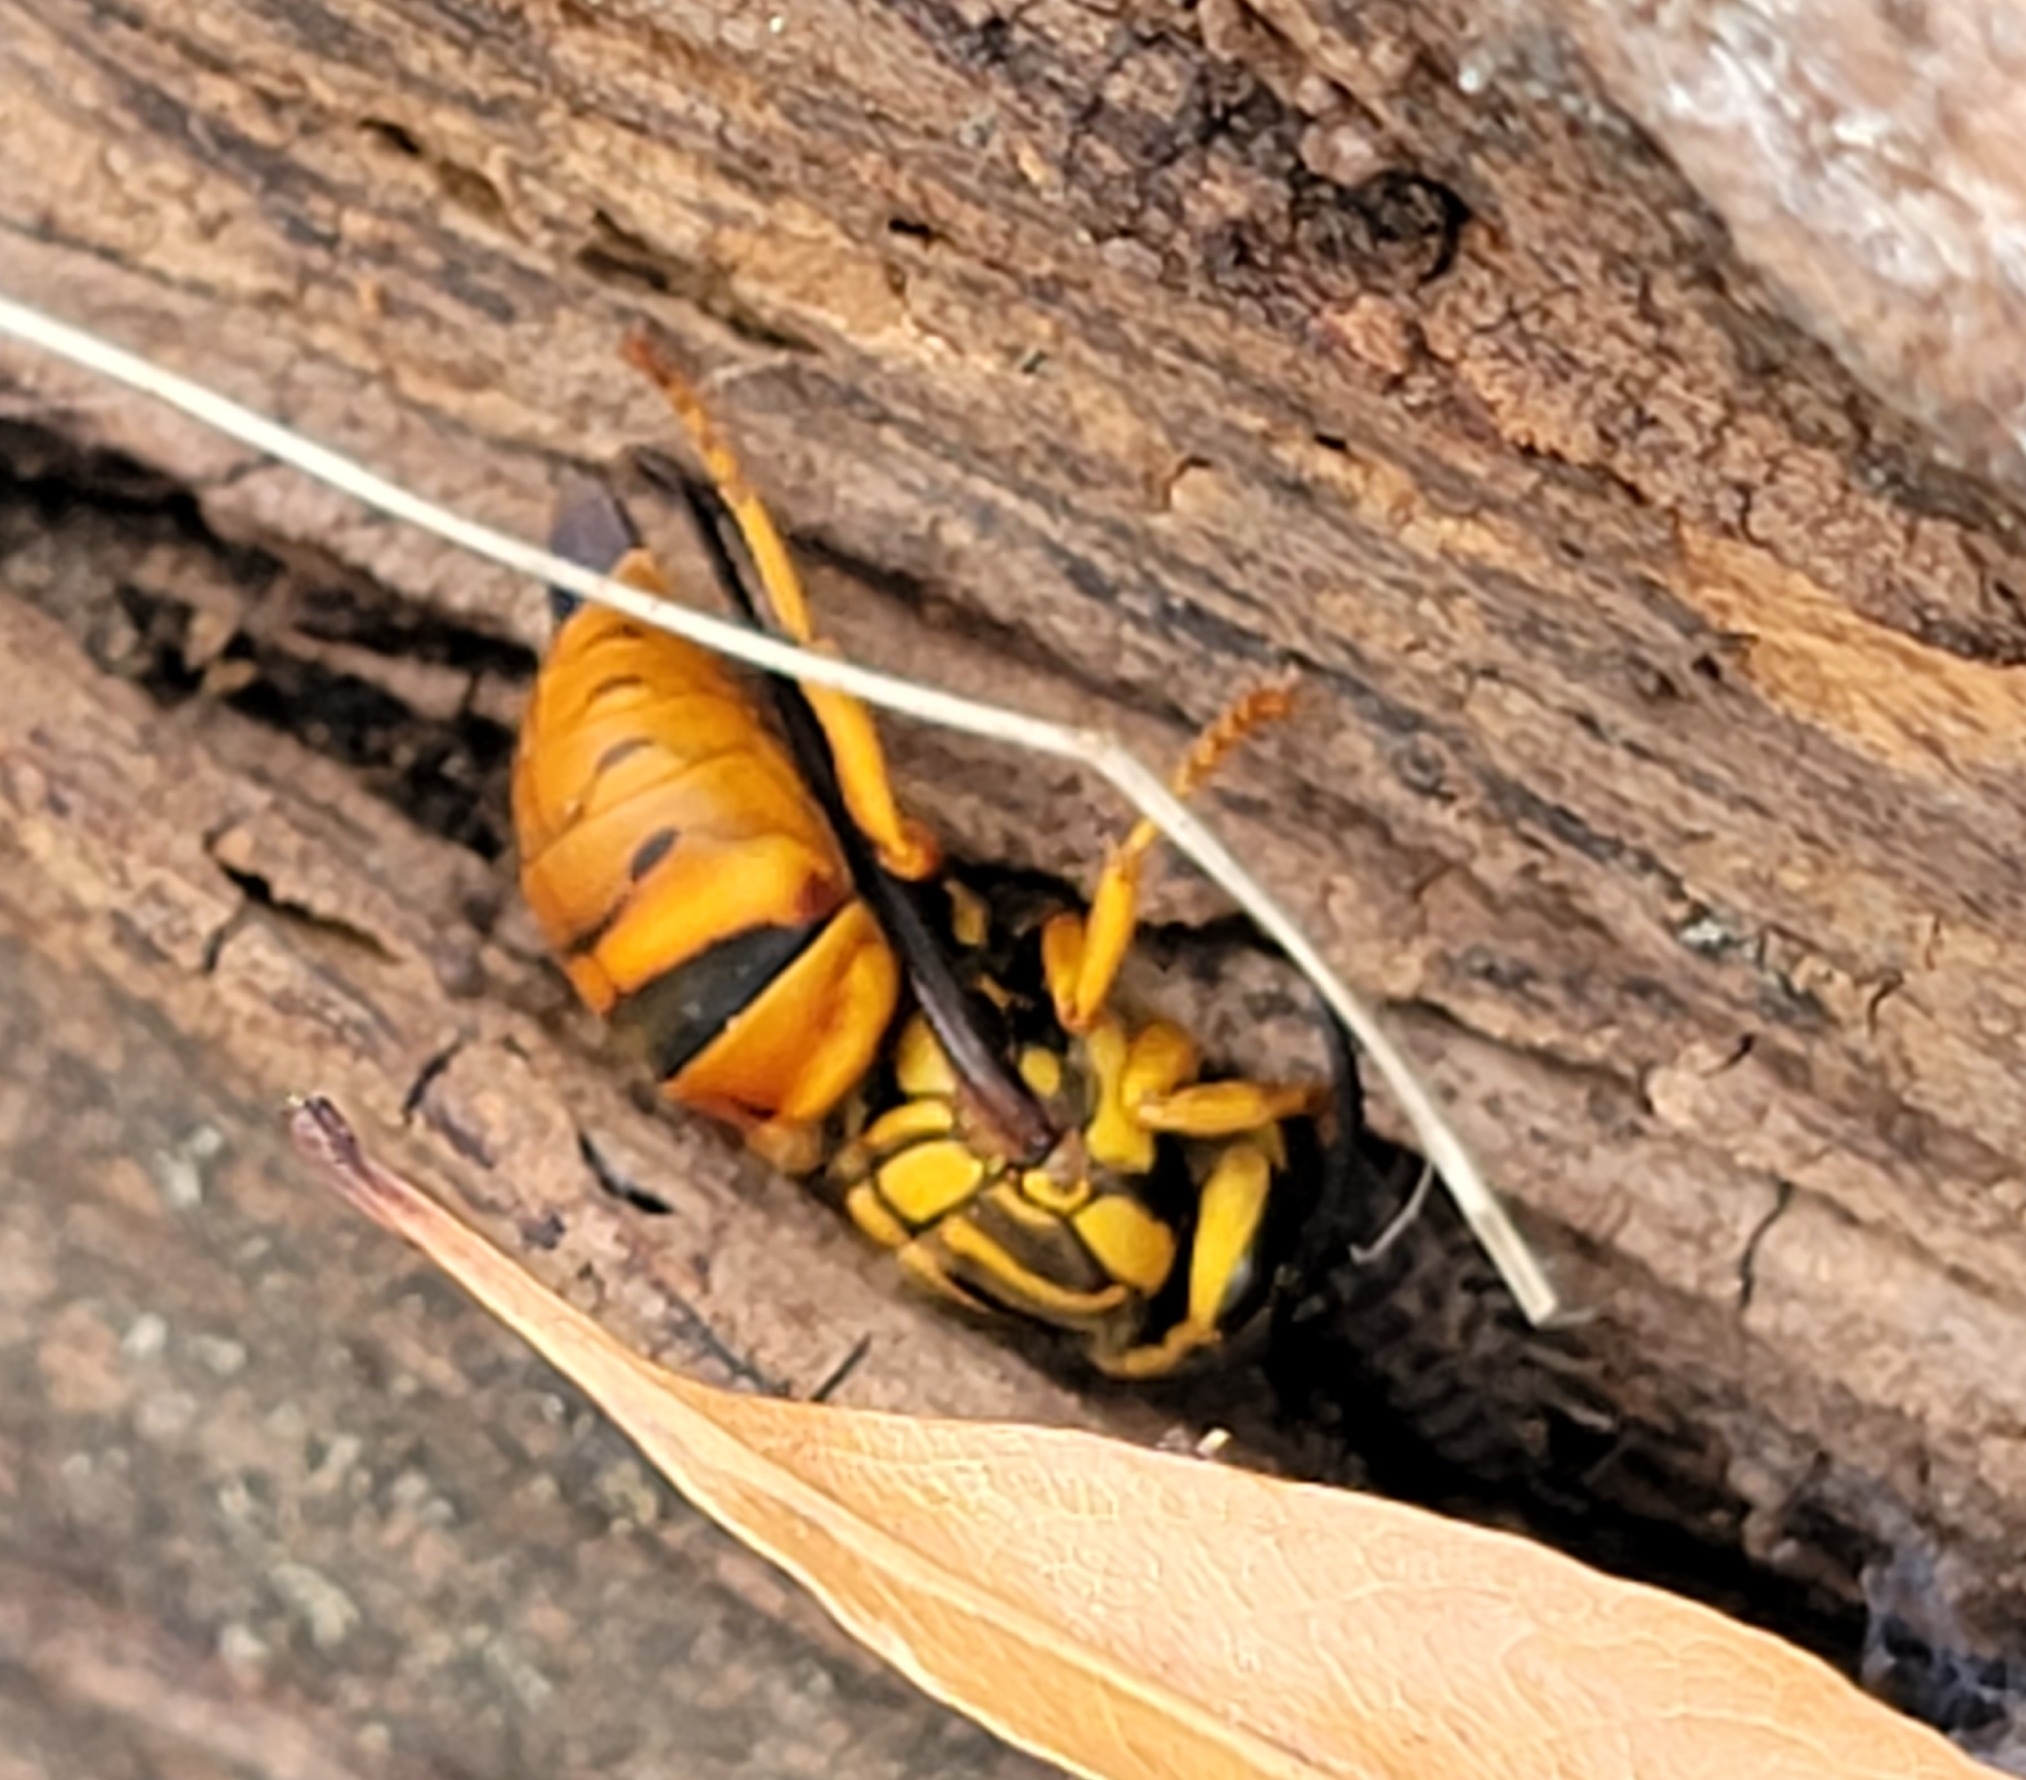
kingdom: Animalia
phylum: Arthropoda
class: Insecta
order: Hymenoptera
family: Vespidae
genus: Vespula
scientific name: Vespula squamosa
